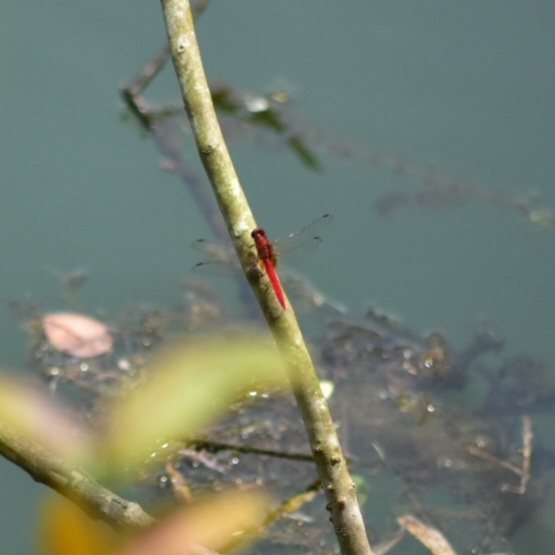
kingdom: Animalia
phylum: Arthropoda
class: Insecta
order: Odonata
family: Libellulidae
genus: Rhodothemis
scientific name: Rhodothemis rufa
